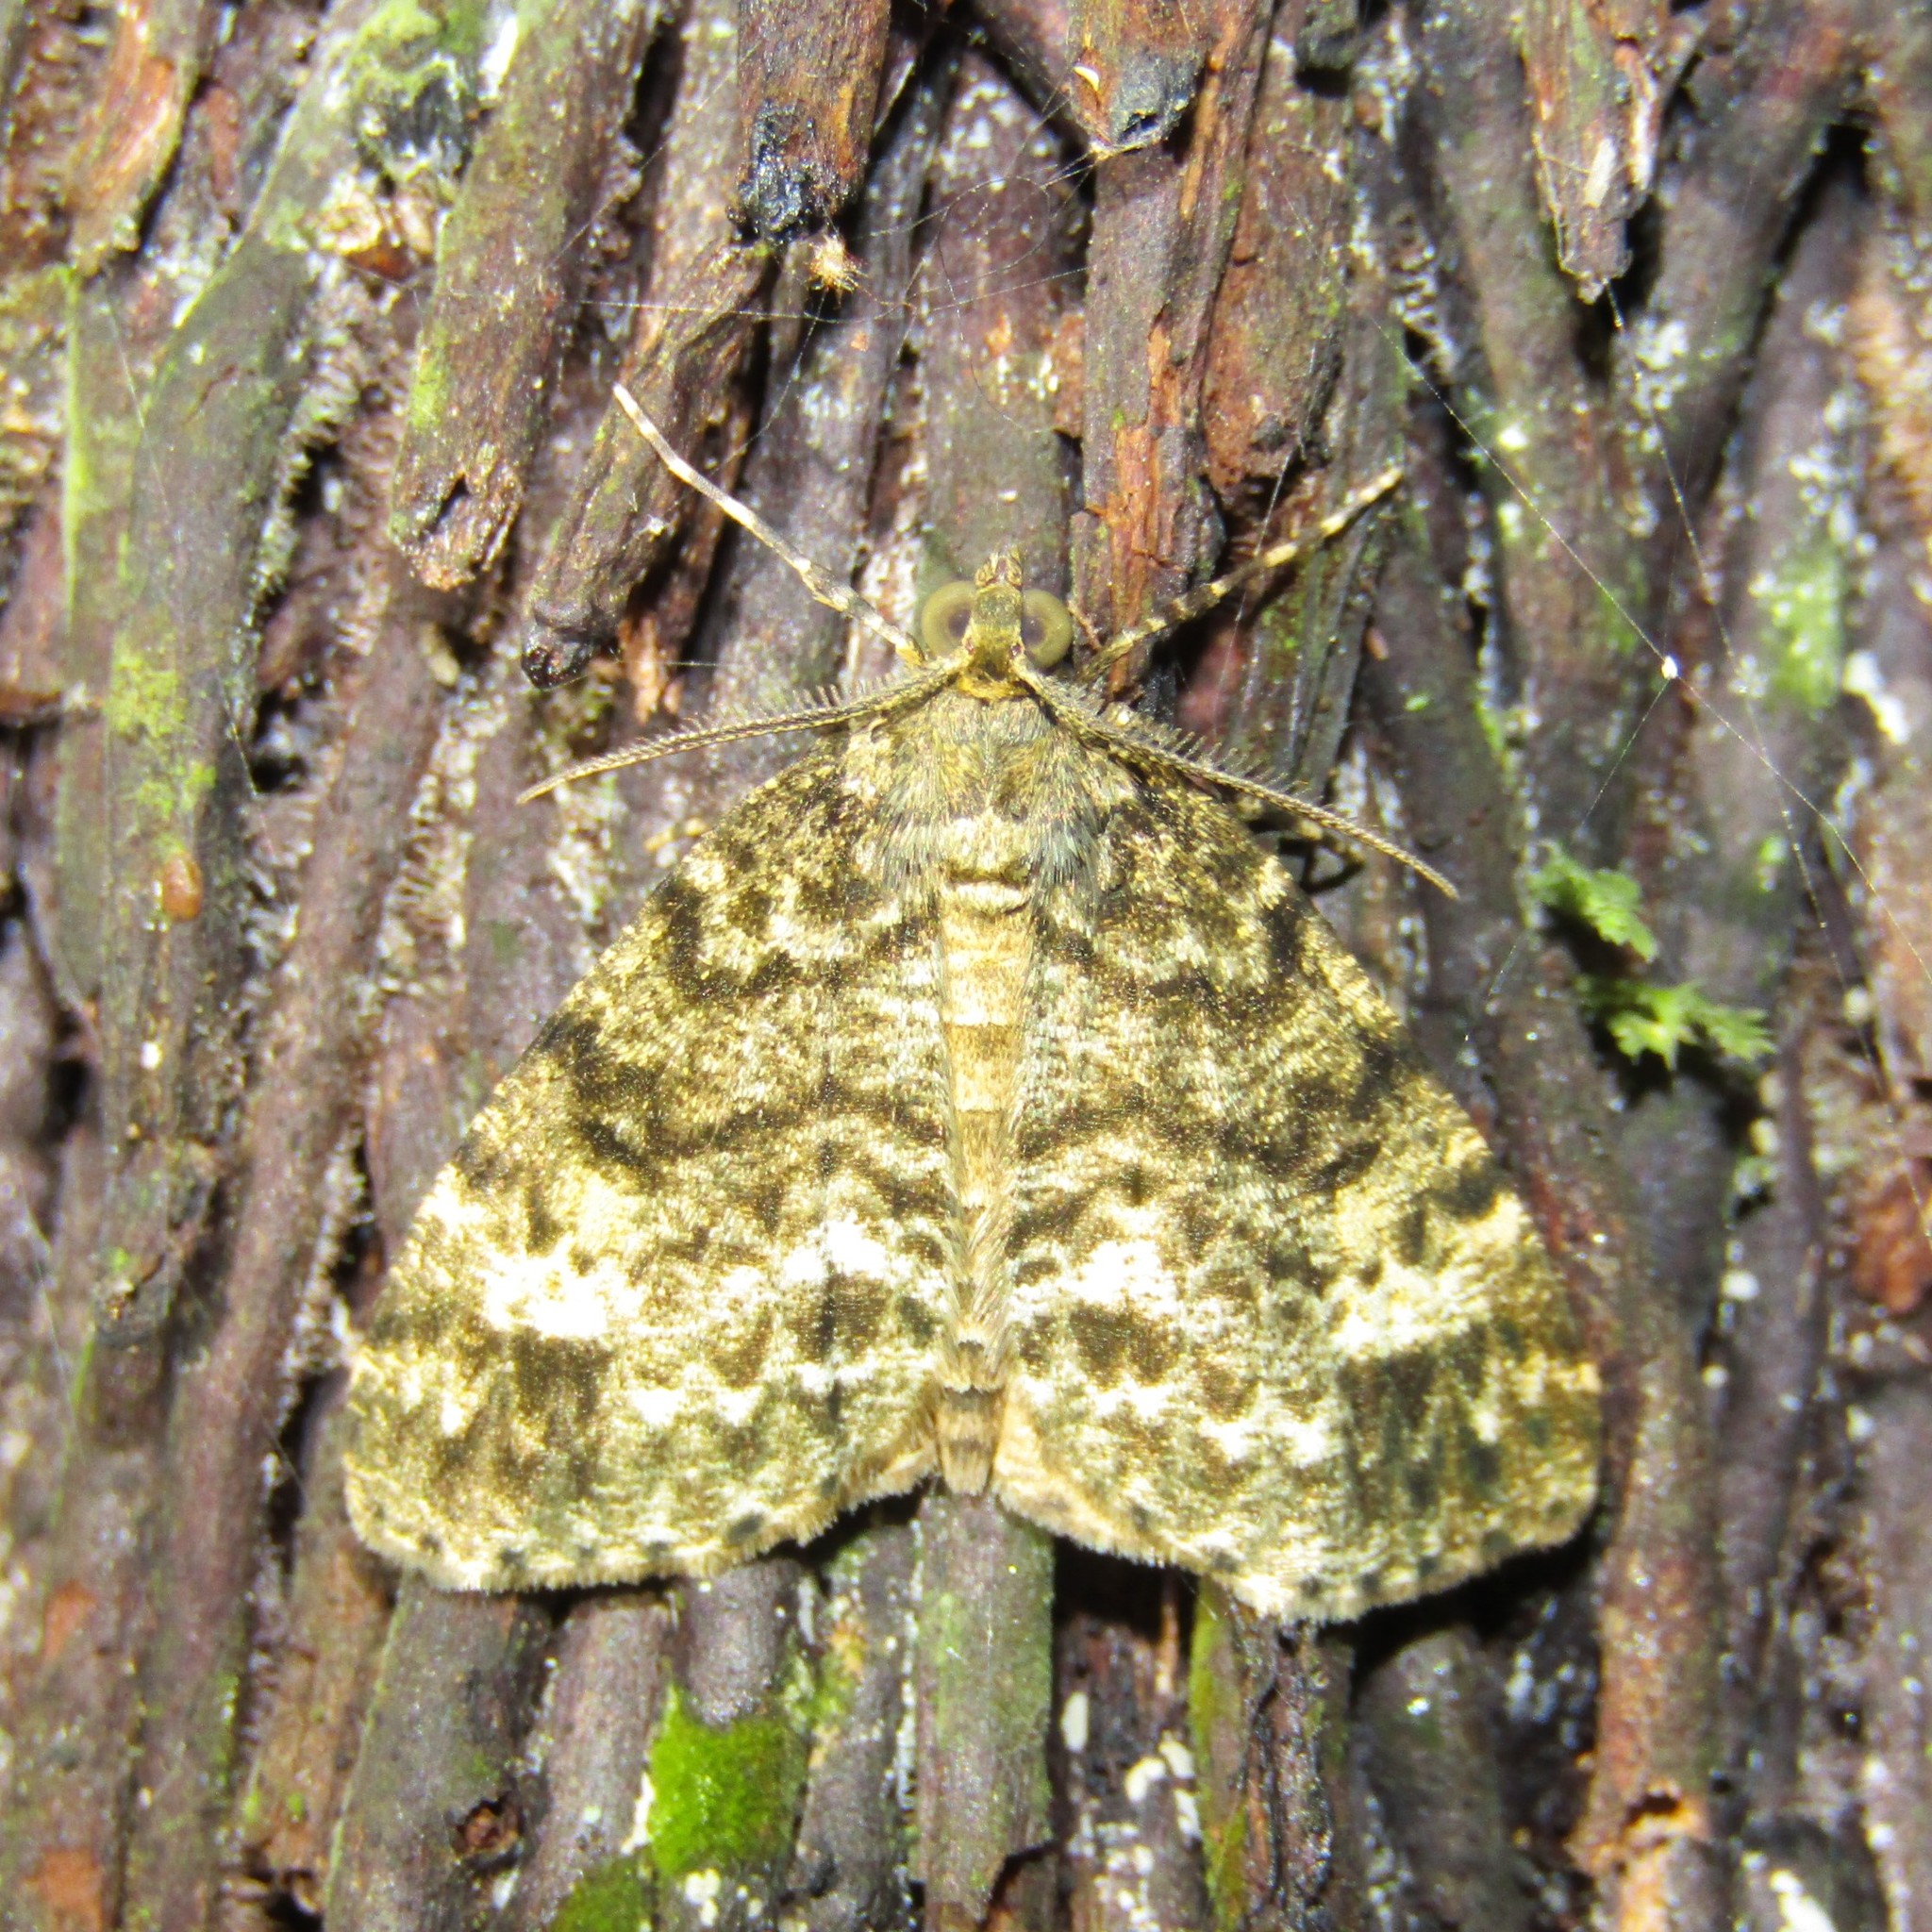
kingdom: Animalia
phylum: Arthropoda
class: Insecta
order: Lepidoptera
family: Geometridae
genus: Pseudocoremia
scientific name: Pseudocoremia indistincta
